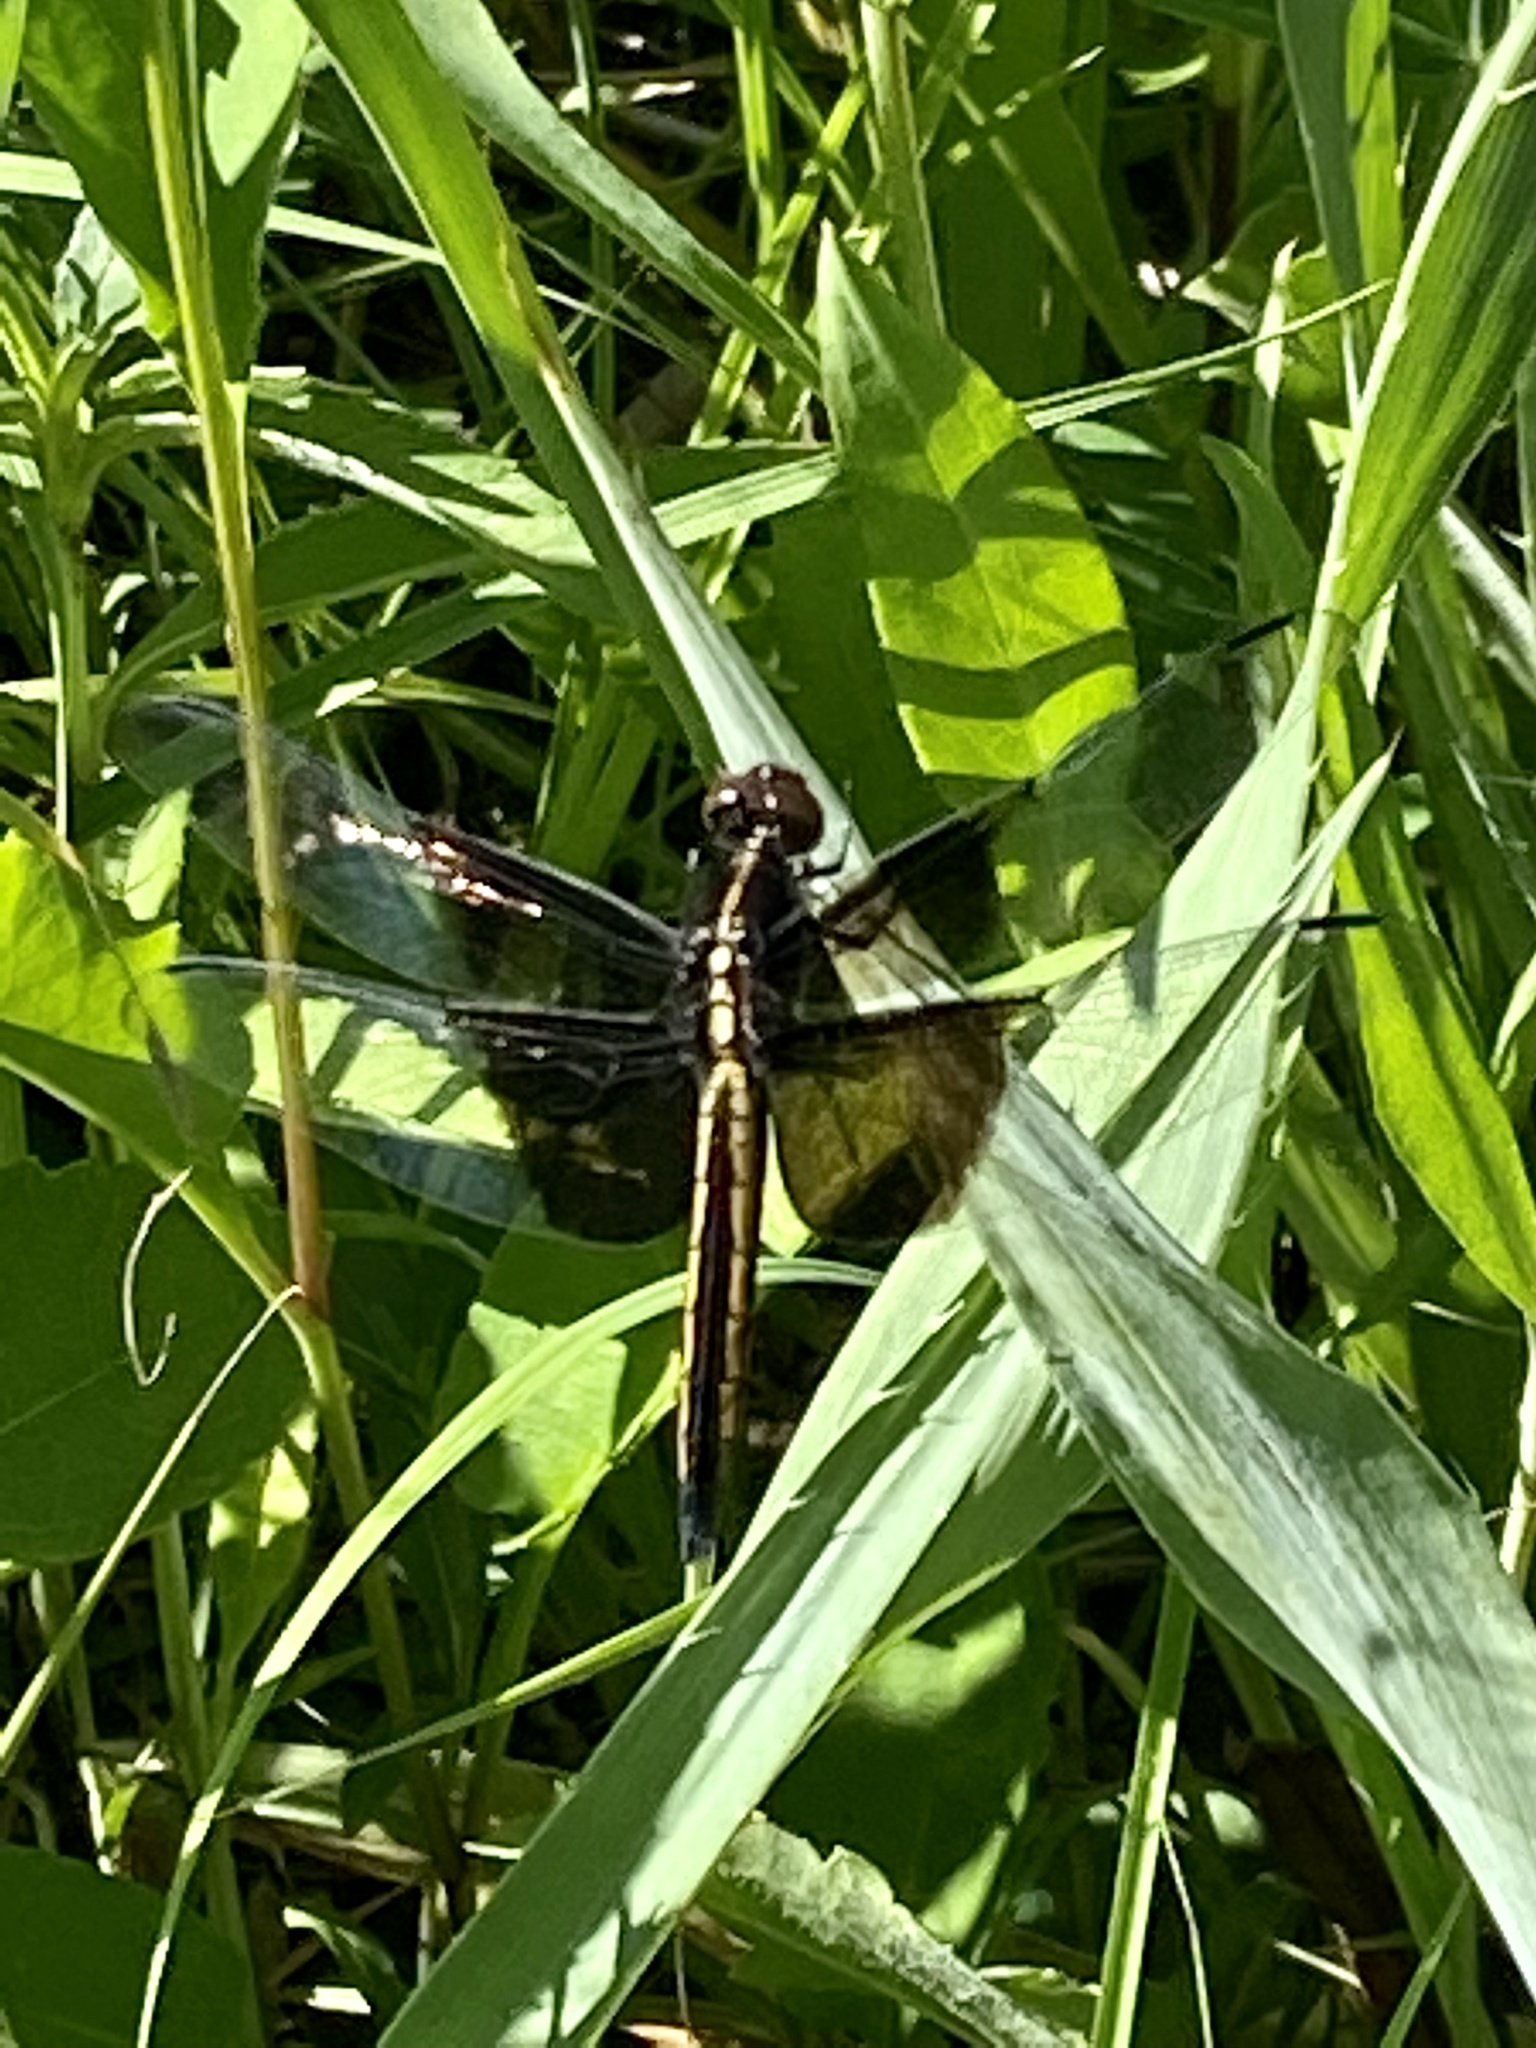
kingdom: Animalia
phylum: Arthropoda
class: Insecta
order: Odonata
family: Libellulidae
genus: Libellula
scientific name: Libellula luctuosa
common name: Widow skimmer
